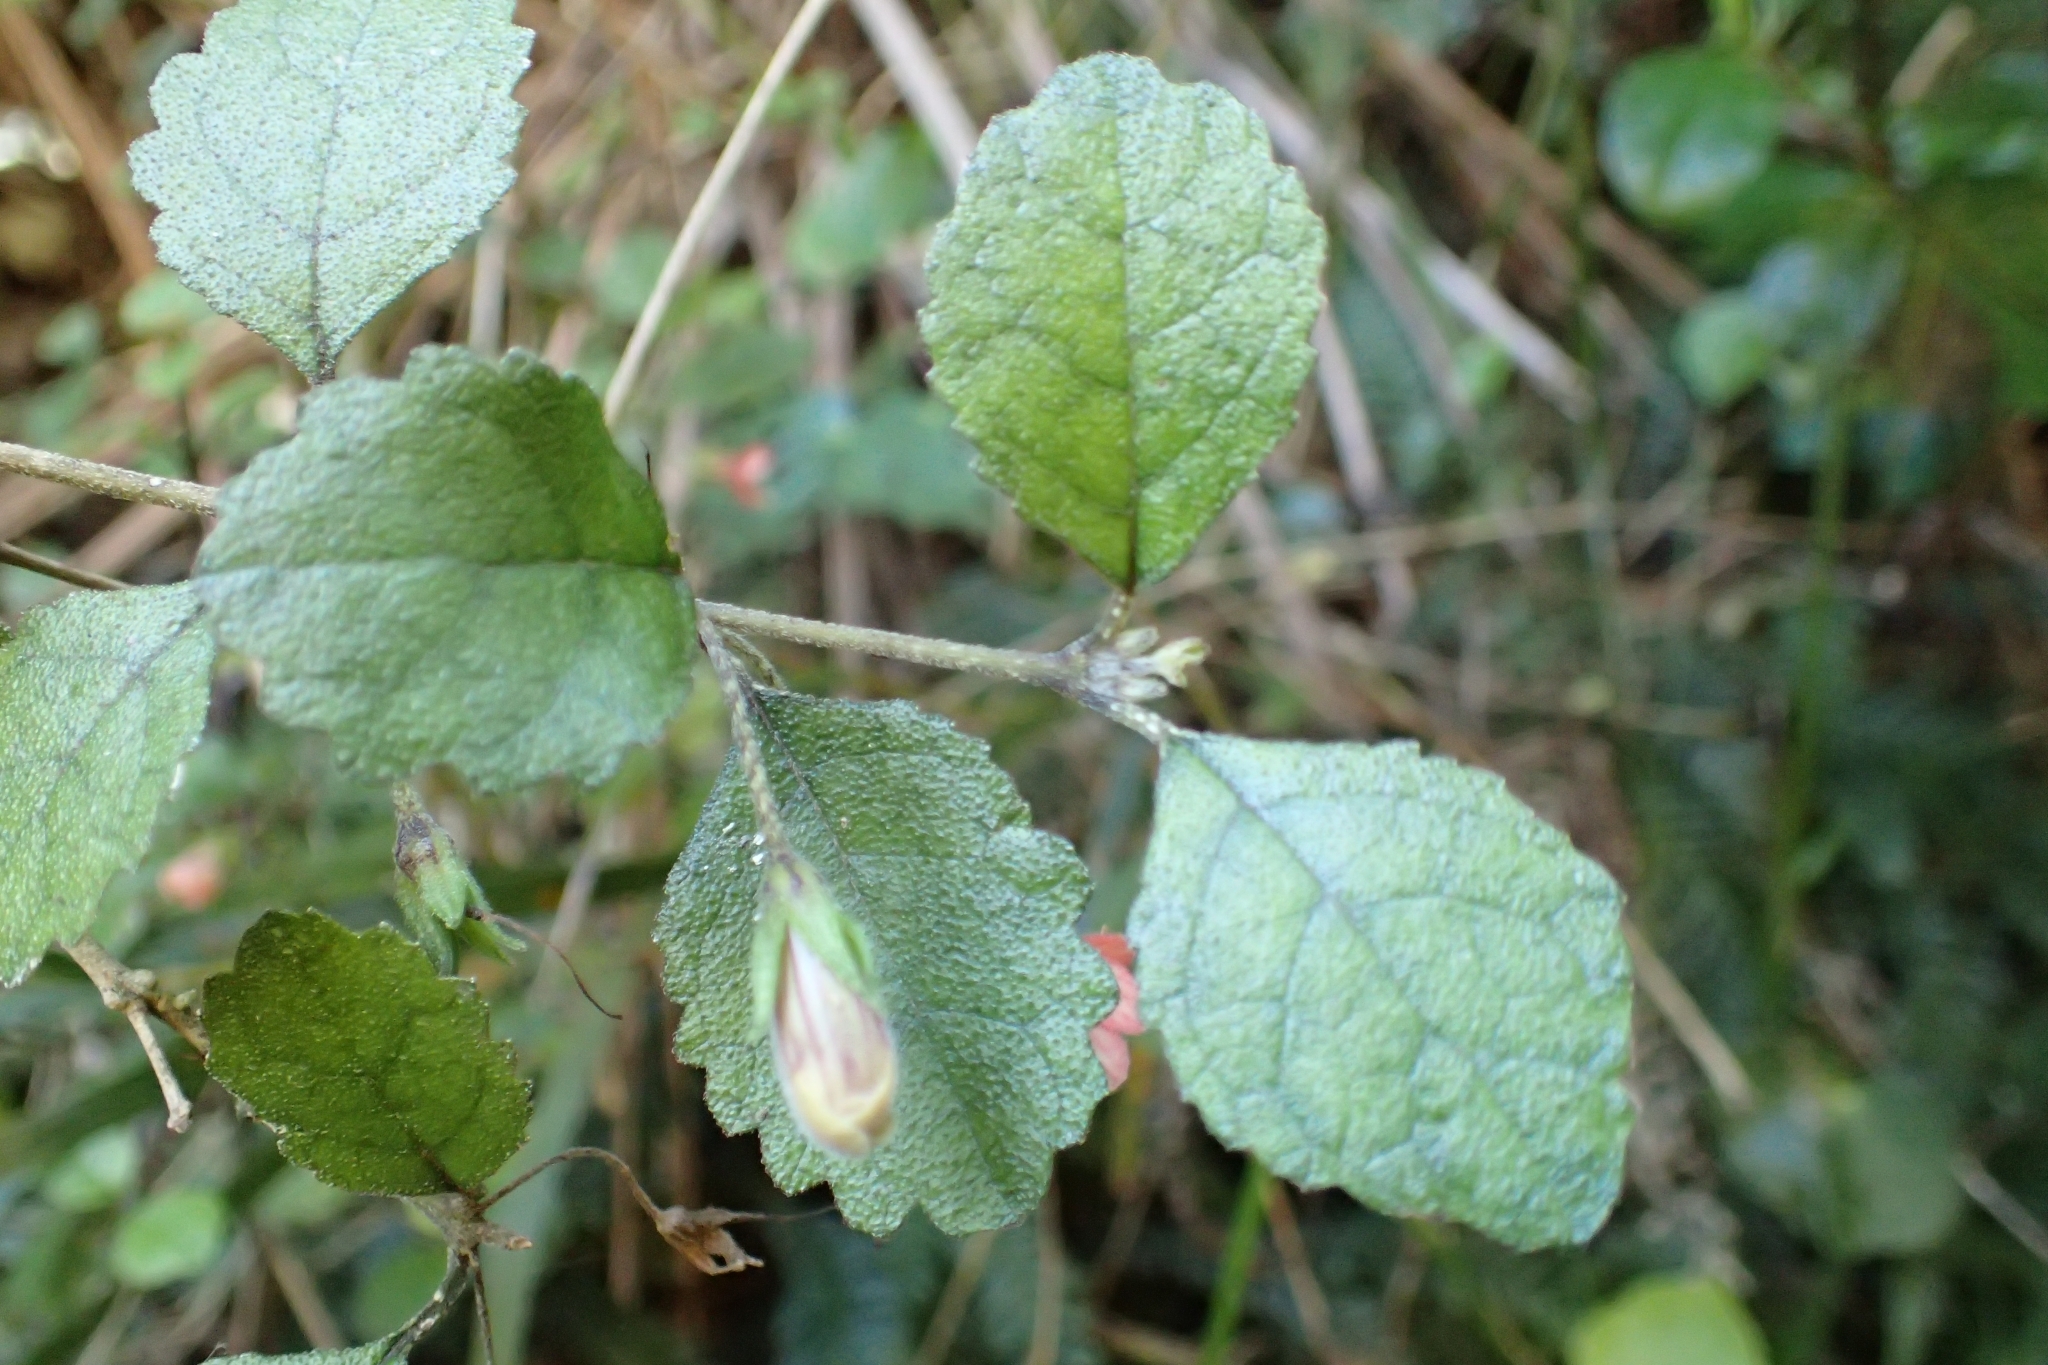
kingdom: Plantae
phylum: Tracheophyta
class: Magnoliopsida
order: Lamiales
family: Gesneriaceae
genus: Rhabdothamnus
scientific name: Rhabdothamnus solandri
